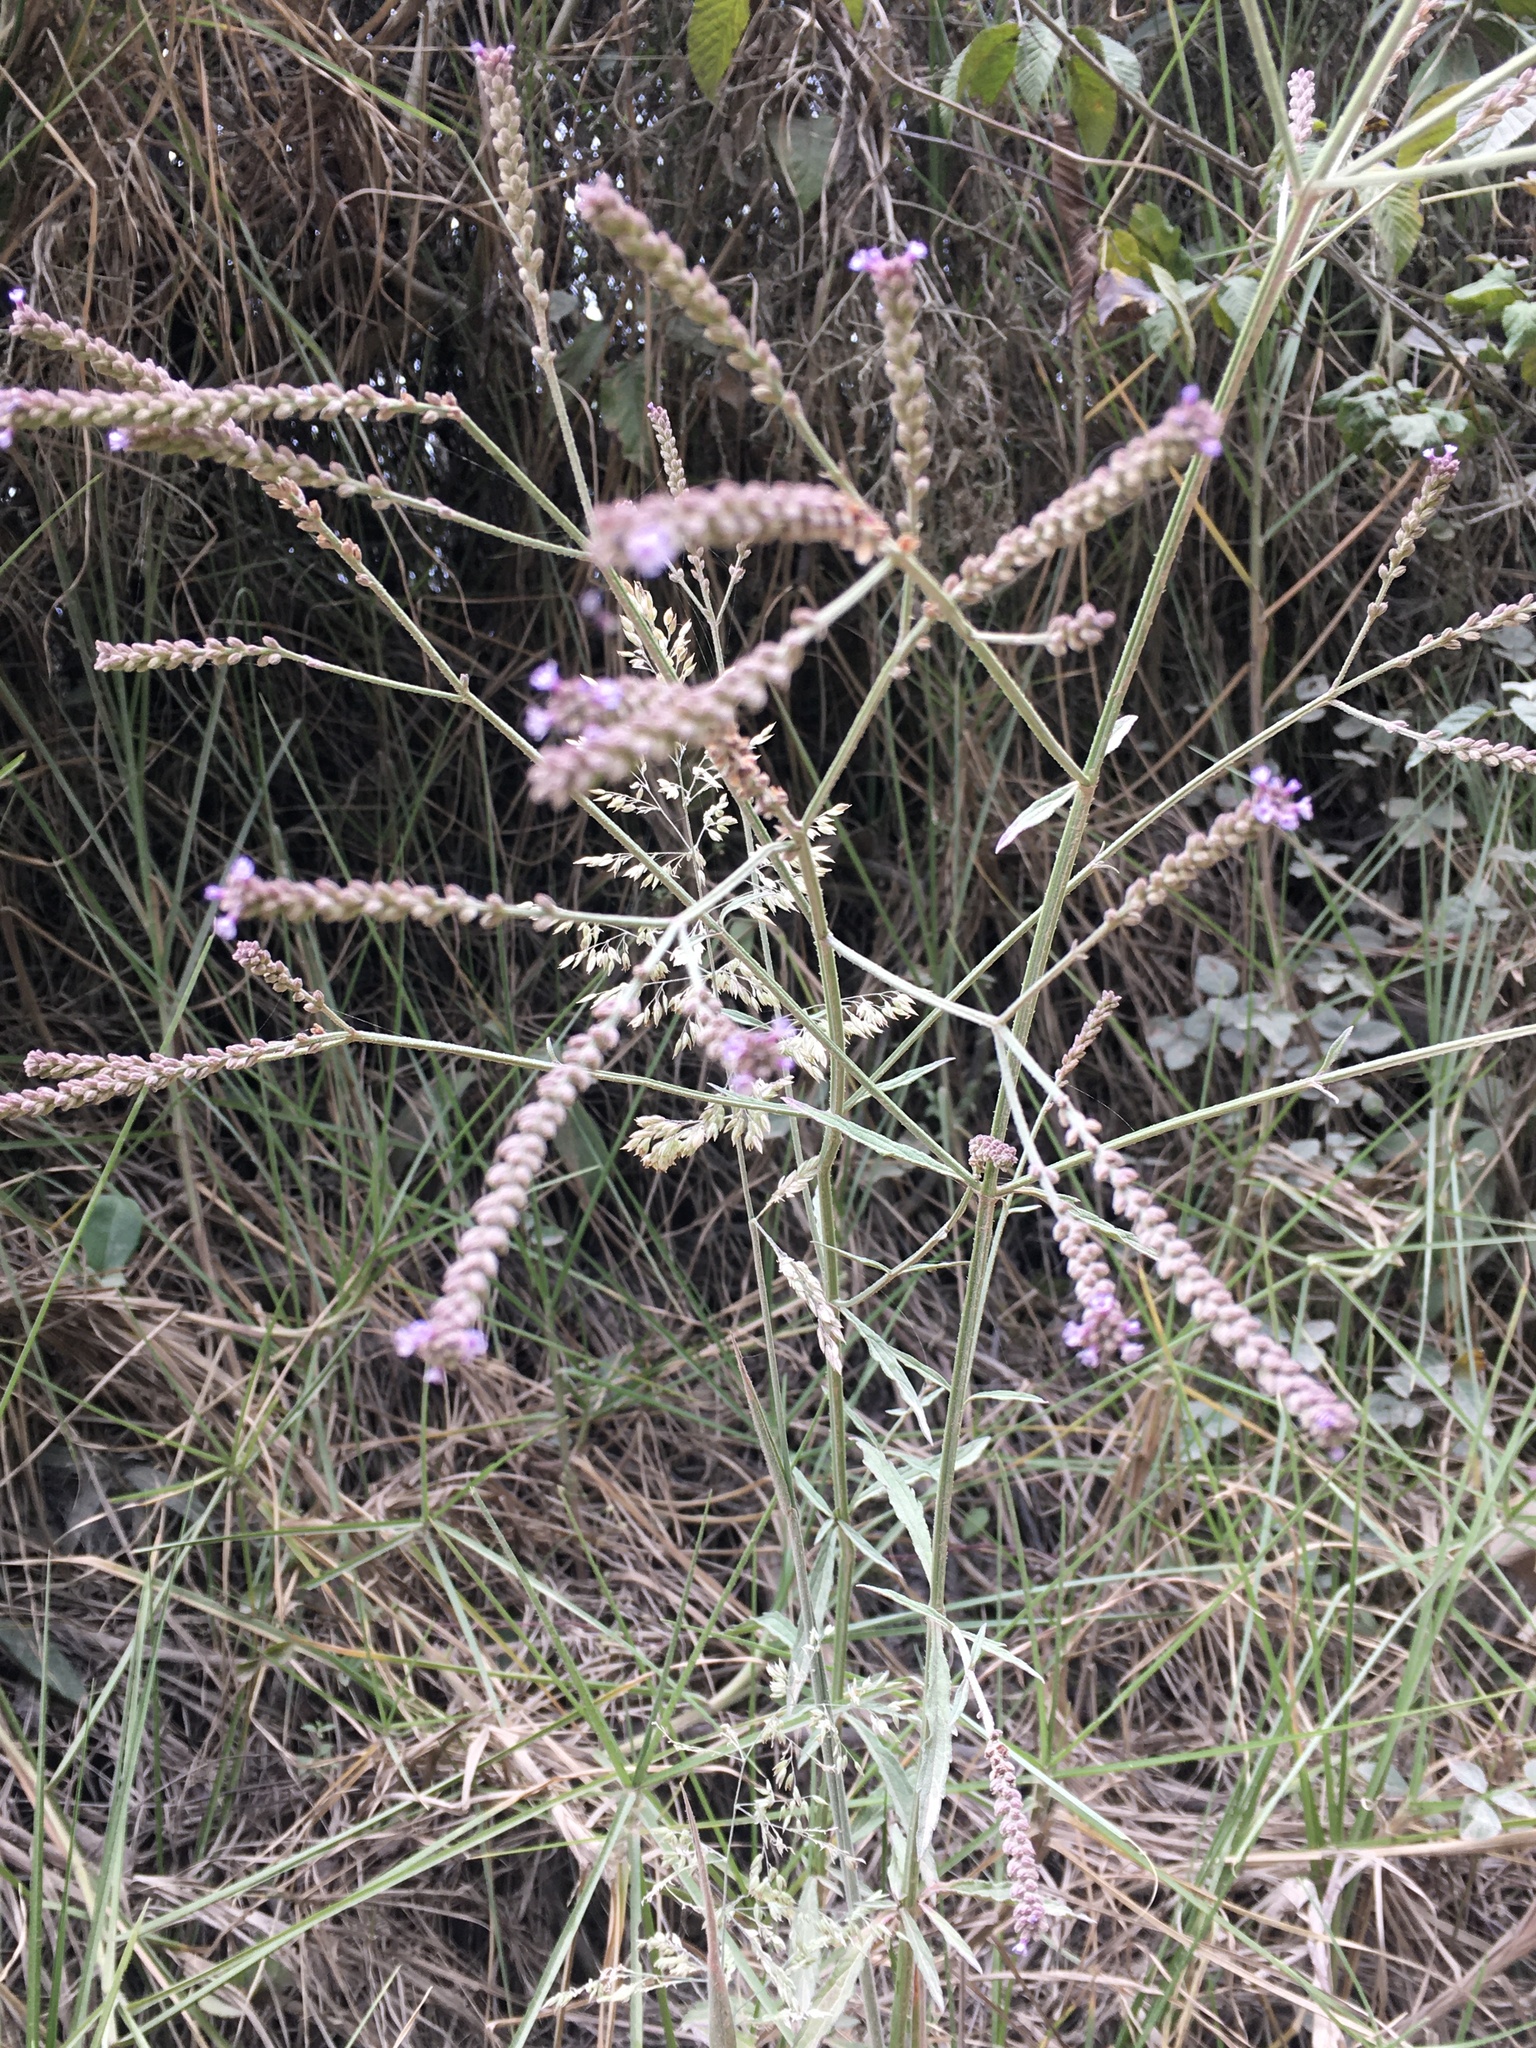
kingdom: Plantae
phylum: Tracheophyta
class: Magnoliopsida
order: Lamiales
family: Verbenaceae
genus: Verbena
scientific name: Verbena litoralis
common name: Seashore vervain
